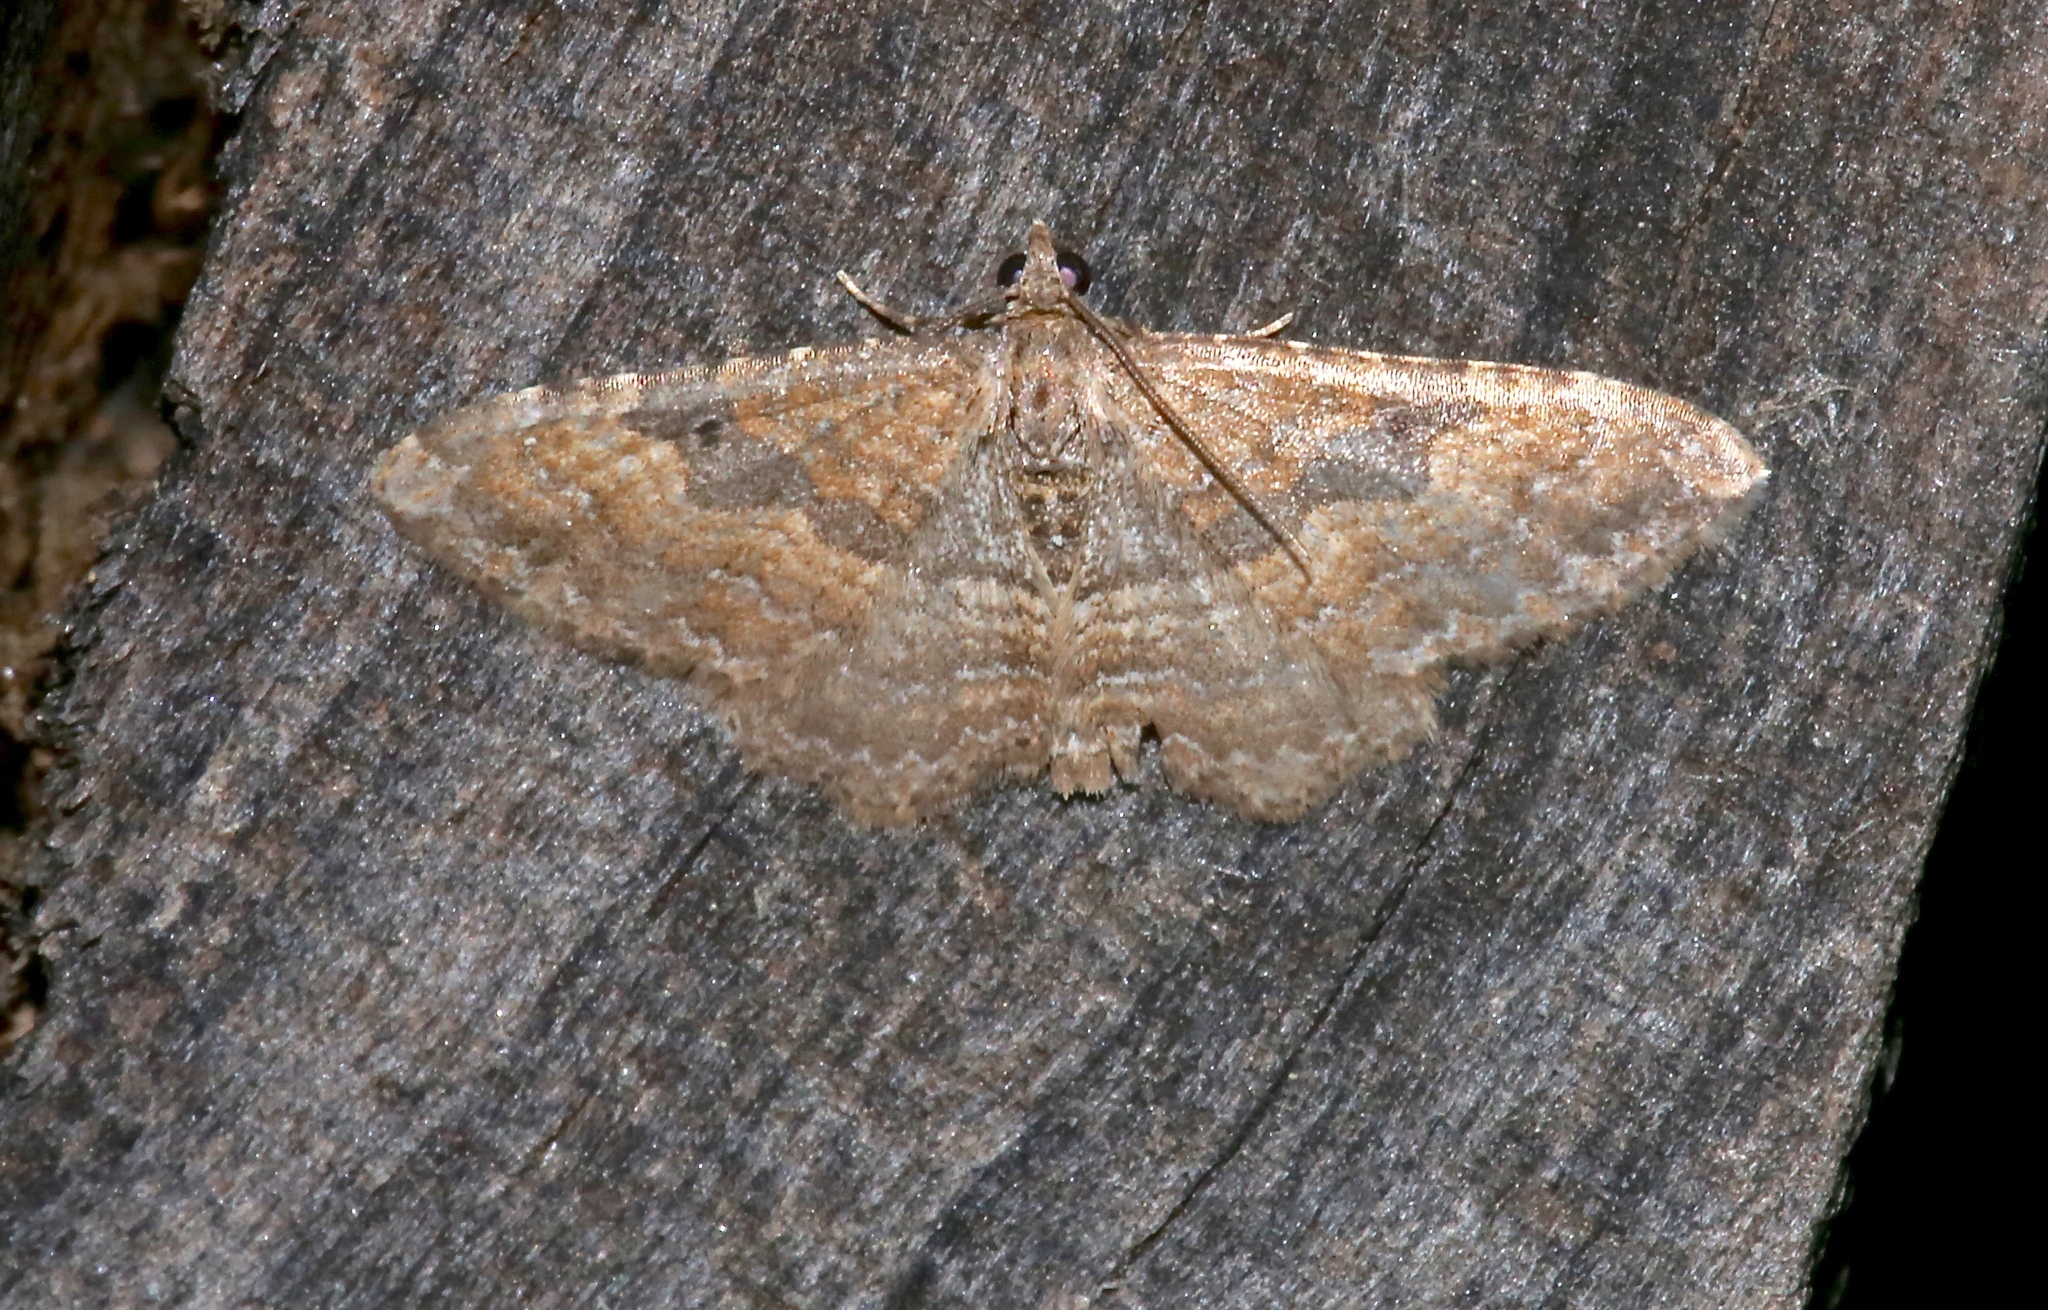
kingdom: Animalia
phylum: Arthropoda
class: Insecta
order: Lepidoptera
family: Geometridae
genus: Orthonama
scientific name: Orthonama obstipata
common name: The gem
